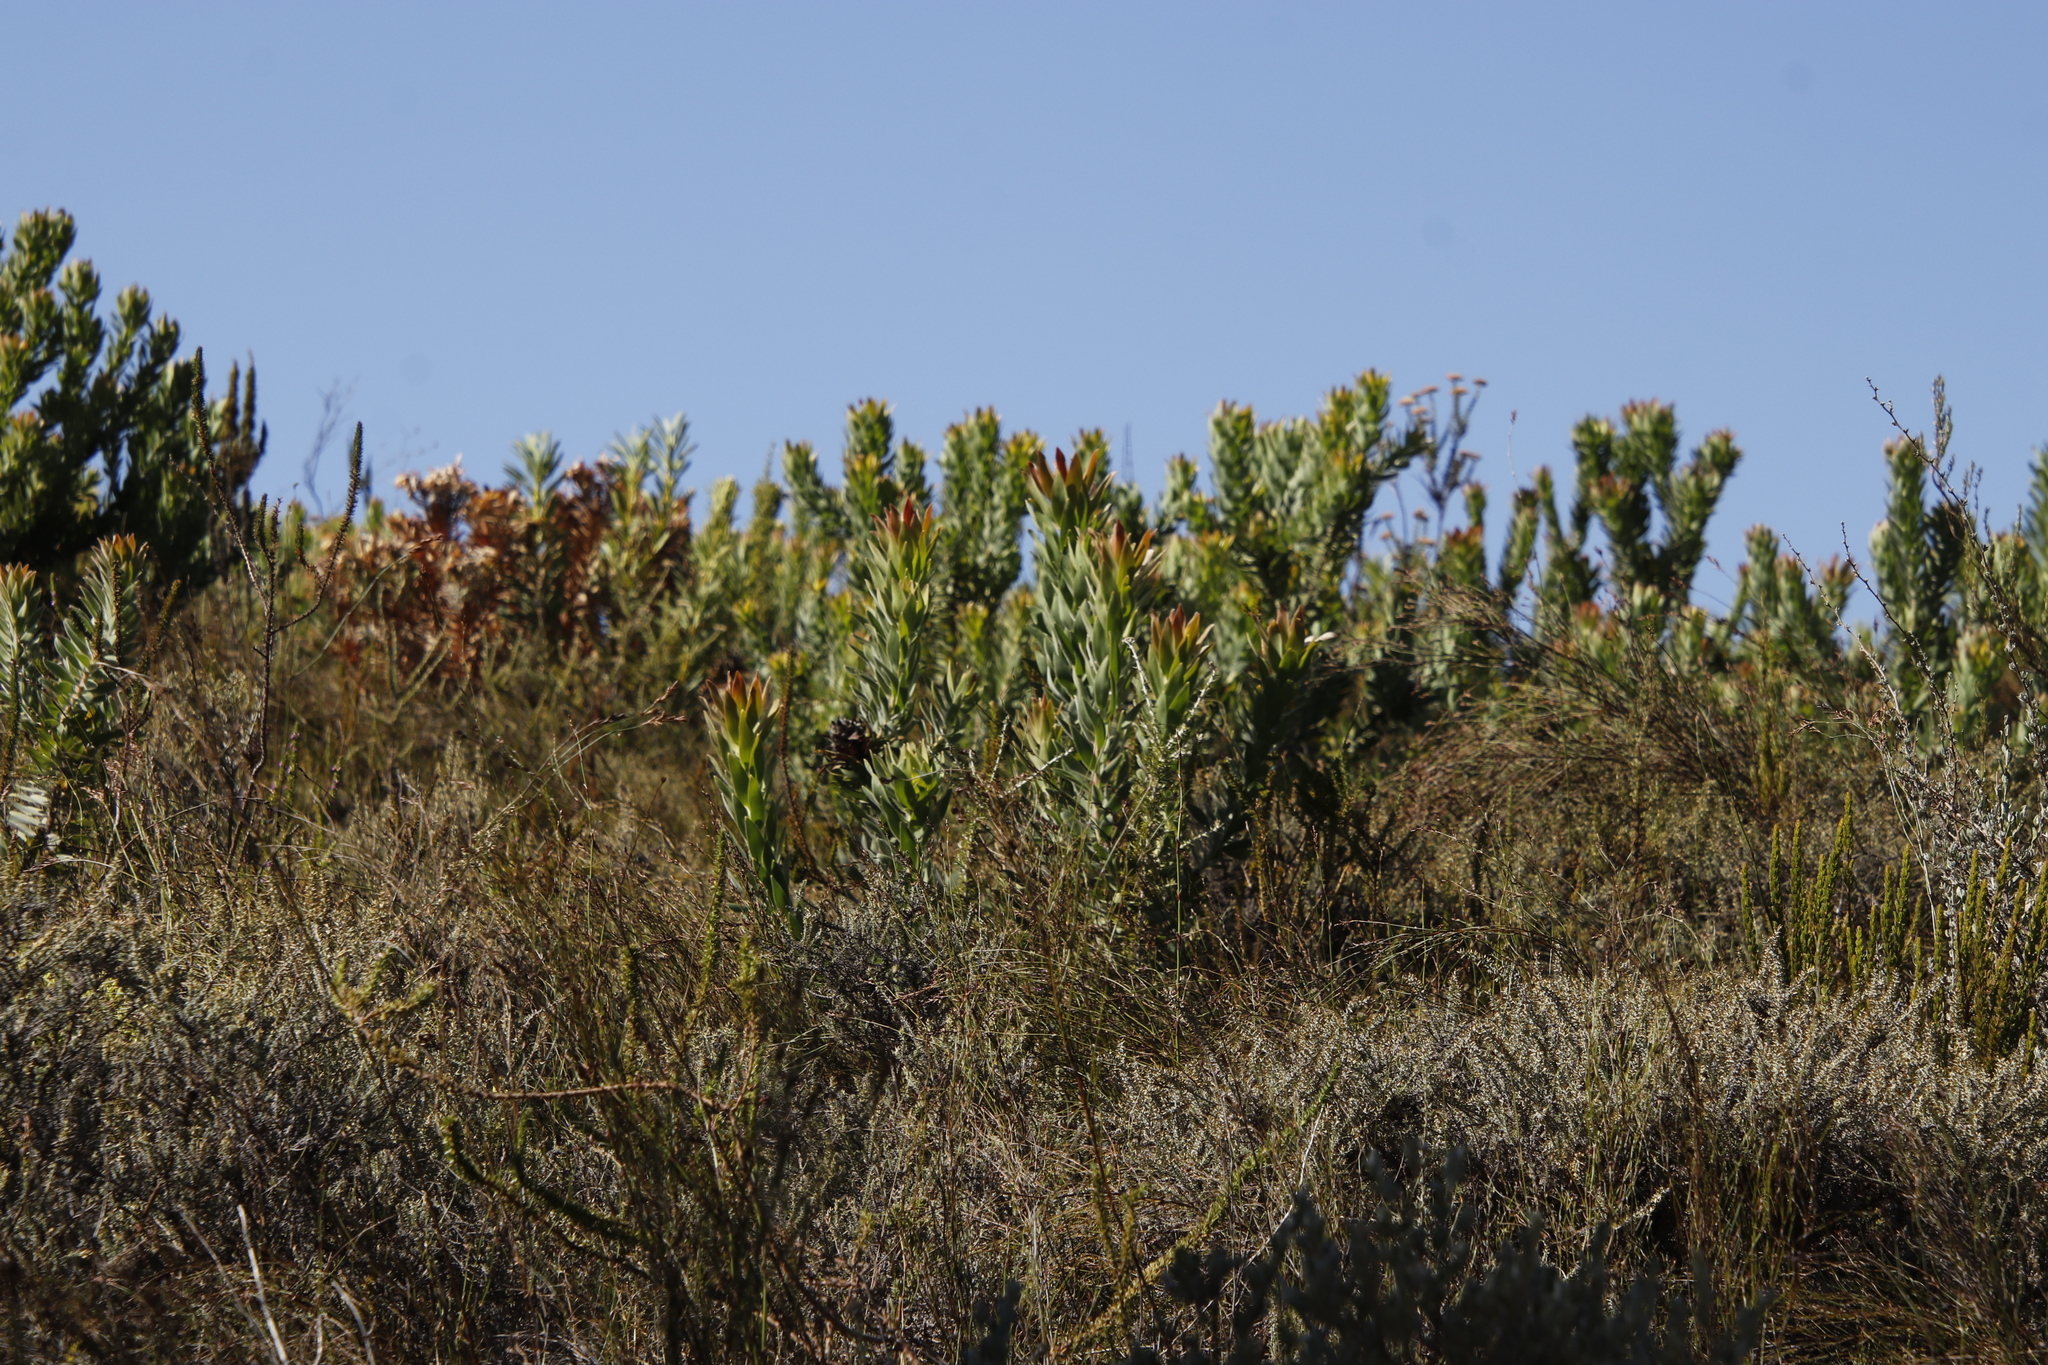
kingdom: Plantae
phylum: Tracheophyta
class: Magnoliopsida
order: Proteales
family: Proteaceae
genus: Leucadendron
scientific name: Leucadendron daphnoides
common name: Du toit's kloof conebush
